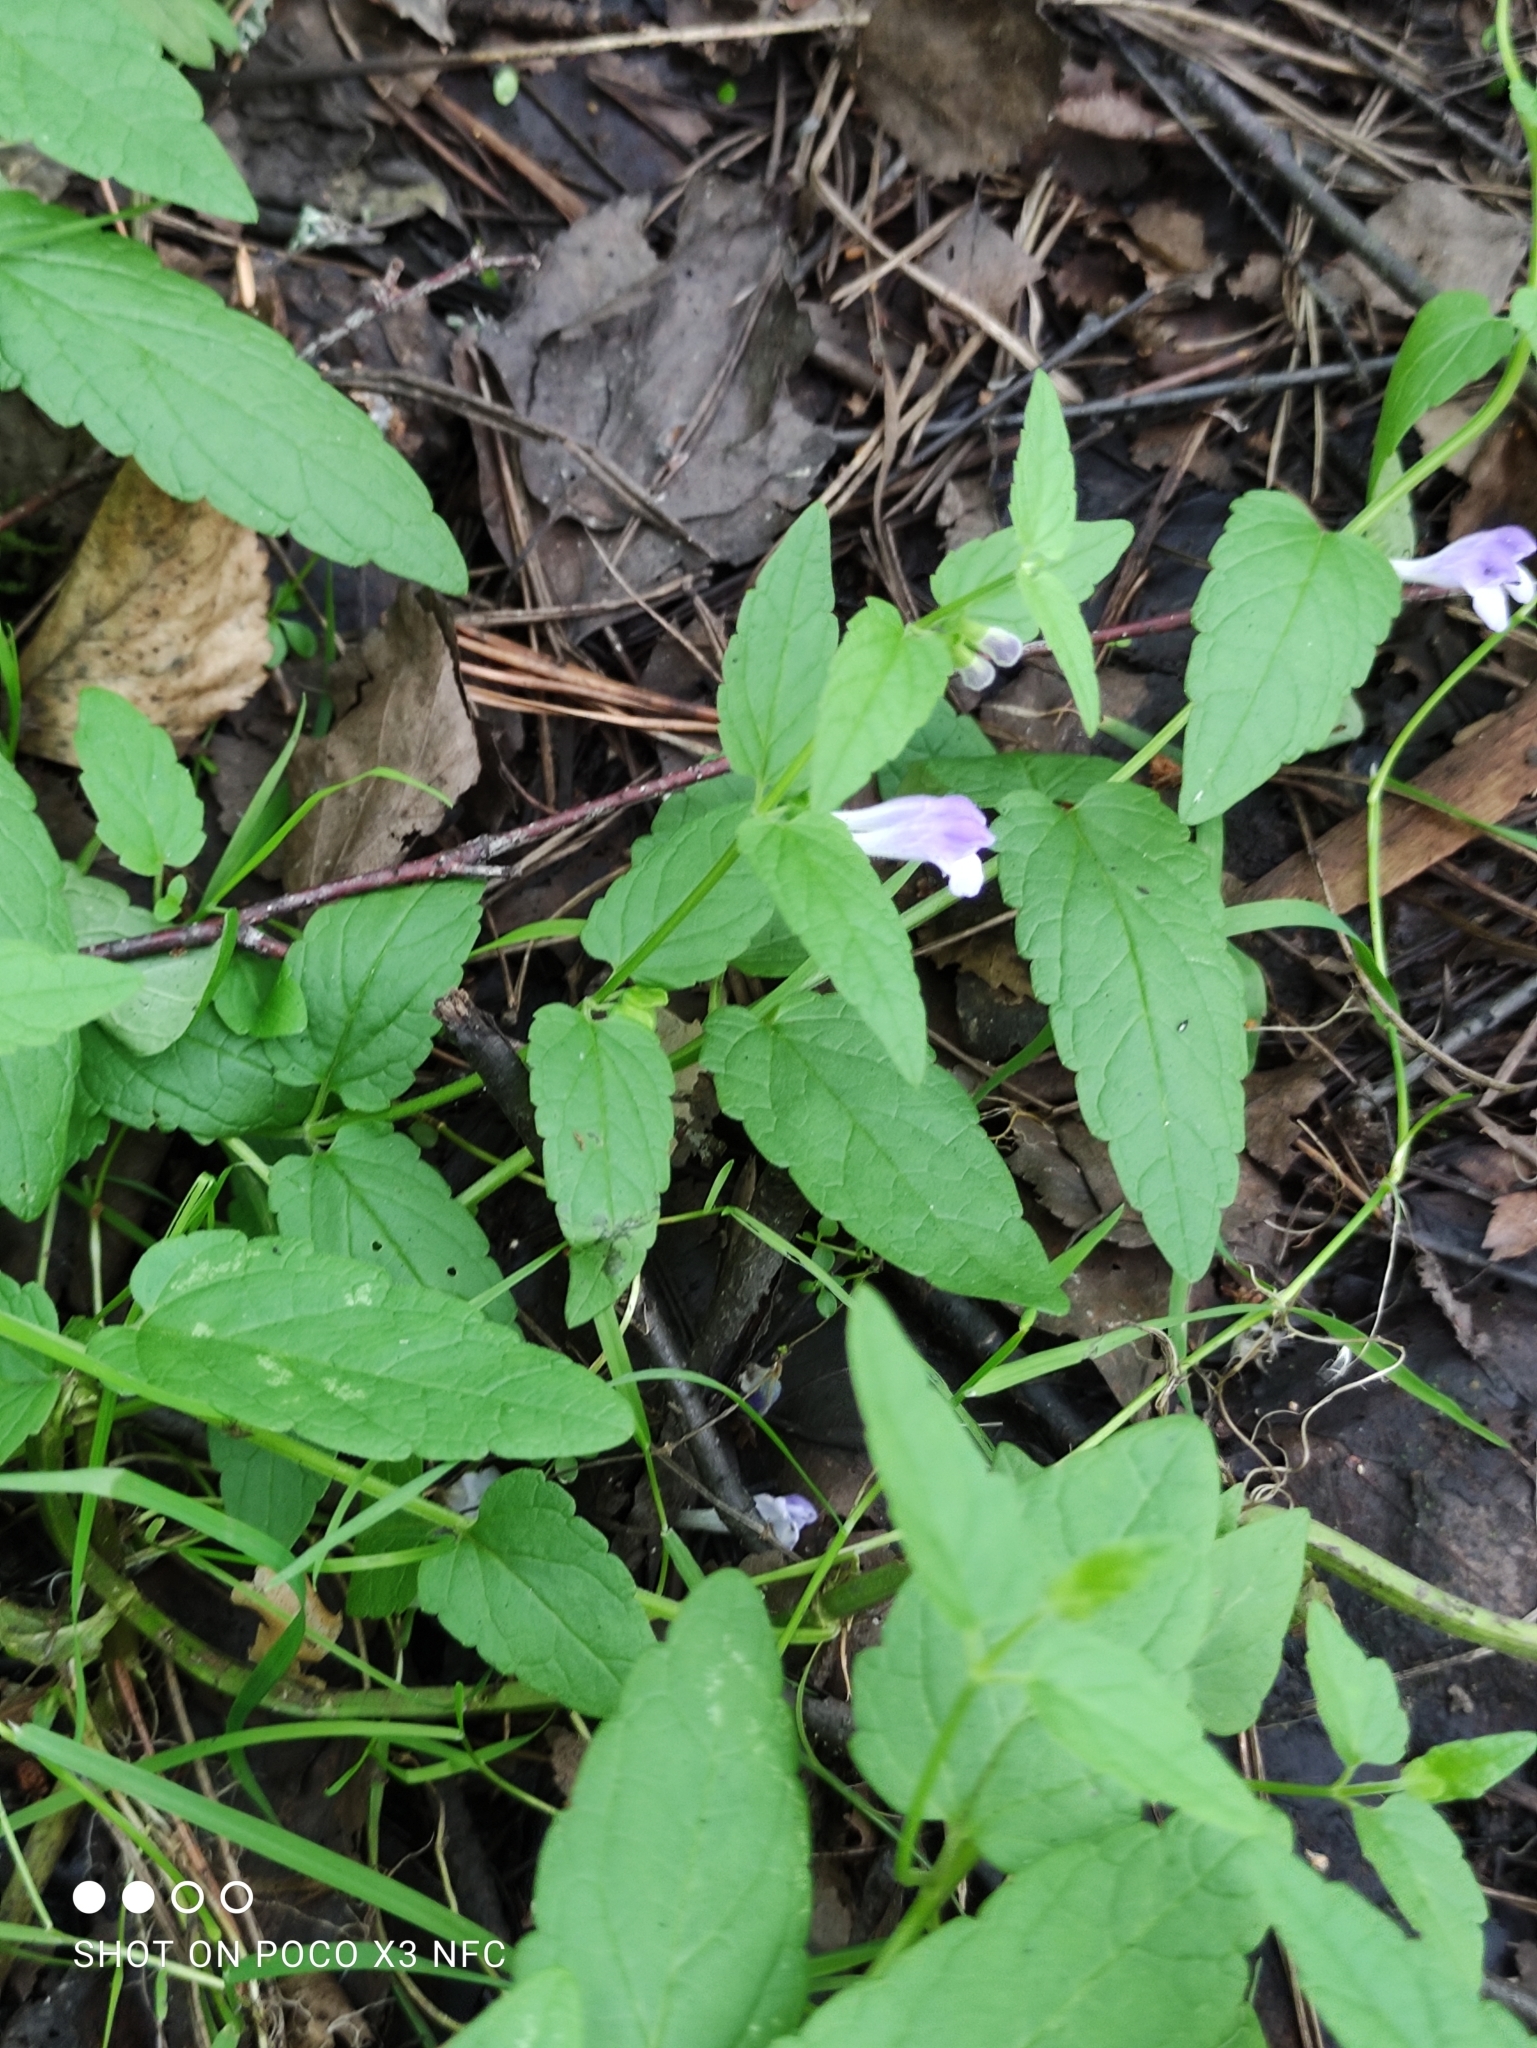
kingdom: Plantae
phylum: Tracheophyta
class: Magnoliopsida
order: Lamiales
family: Lamiaceae
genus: Scutellaria
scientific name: Scutellaria galericulata
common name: Skullcap
